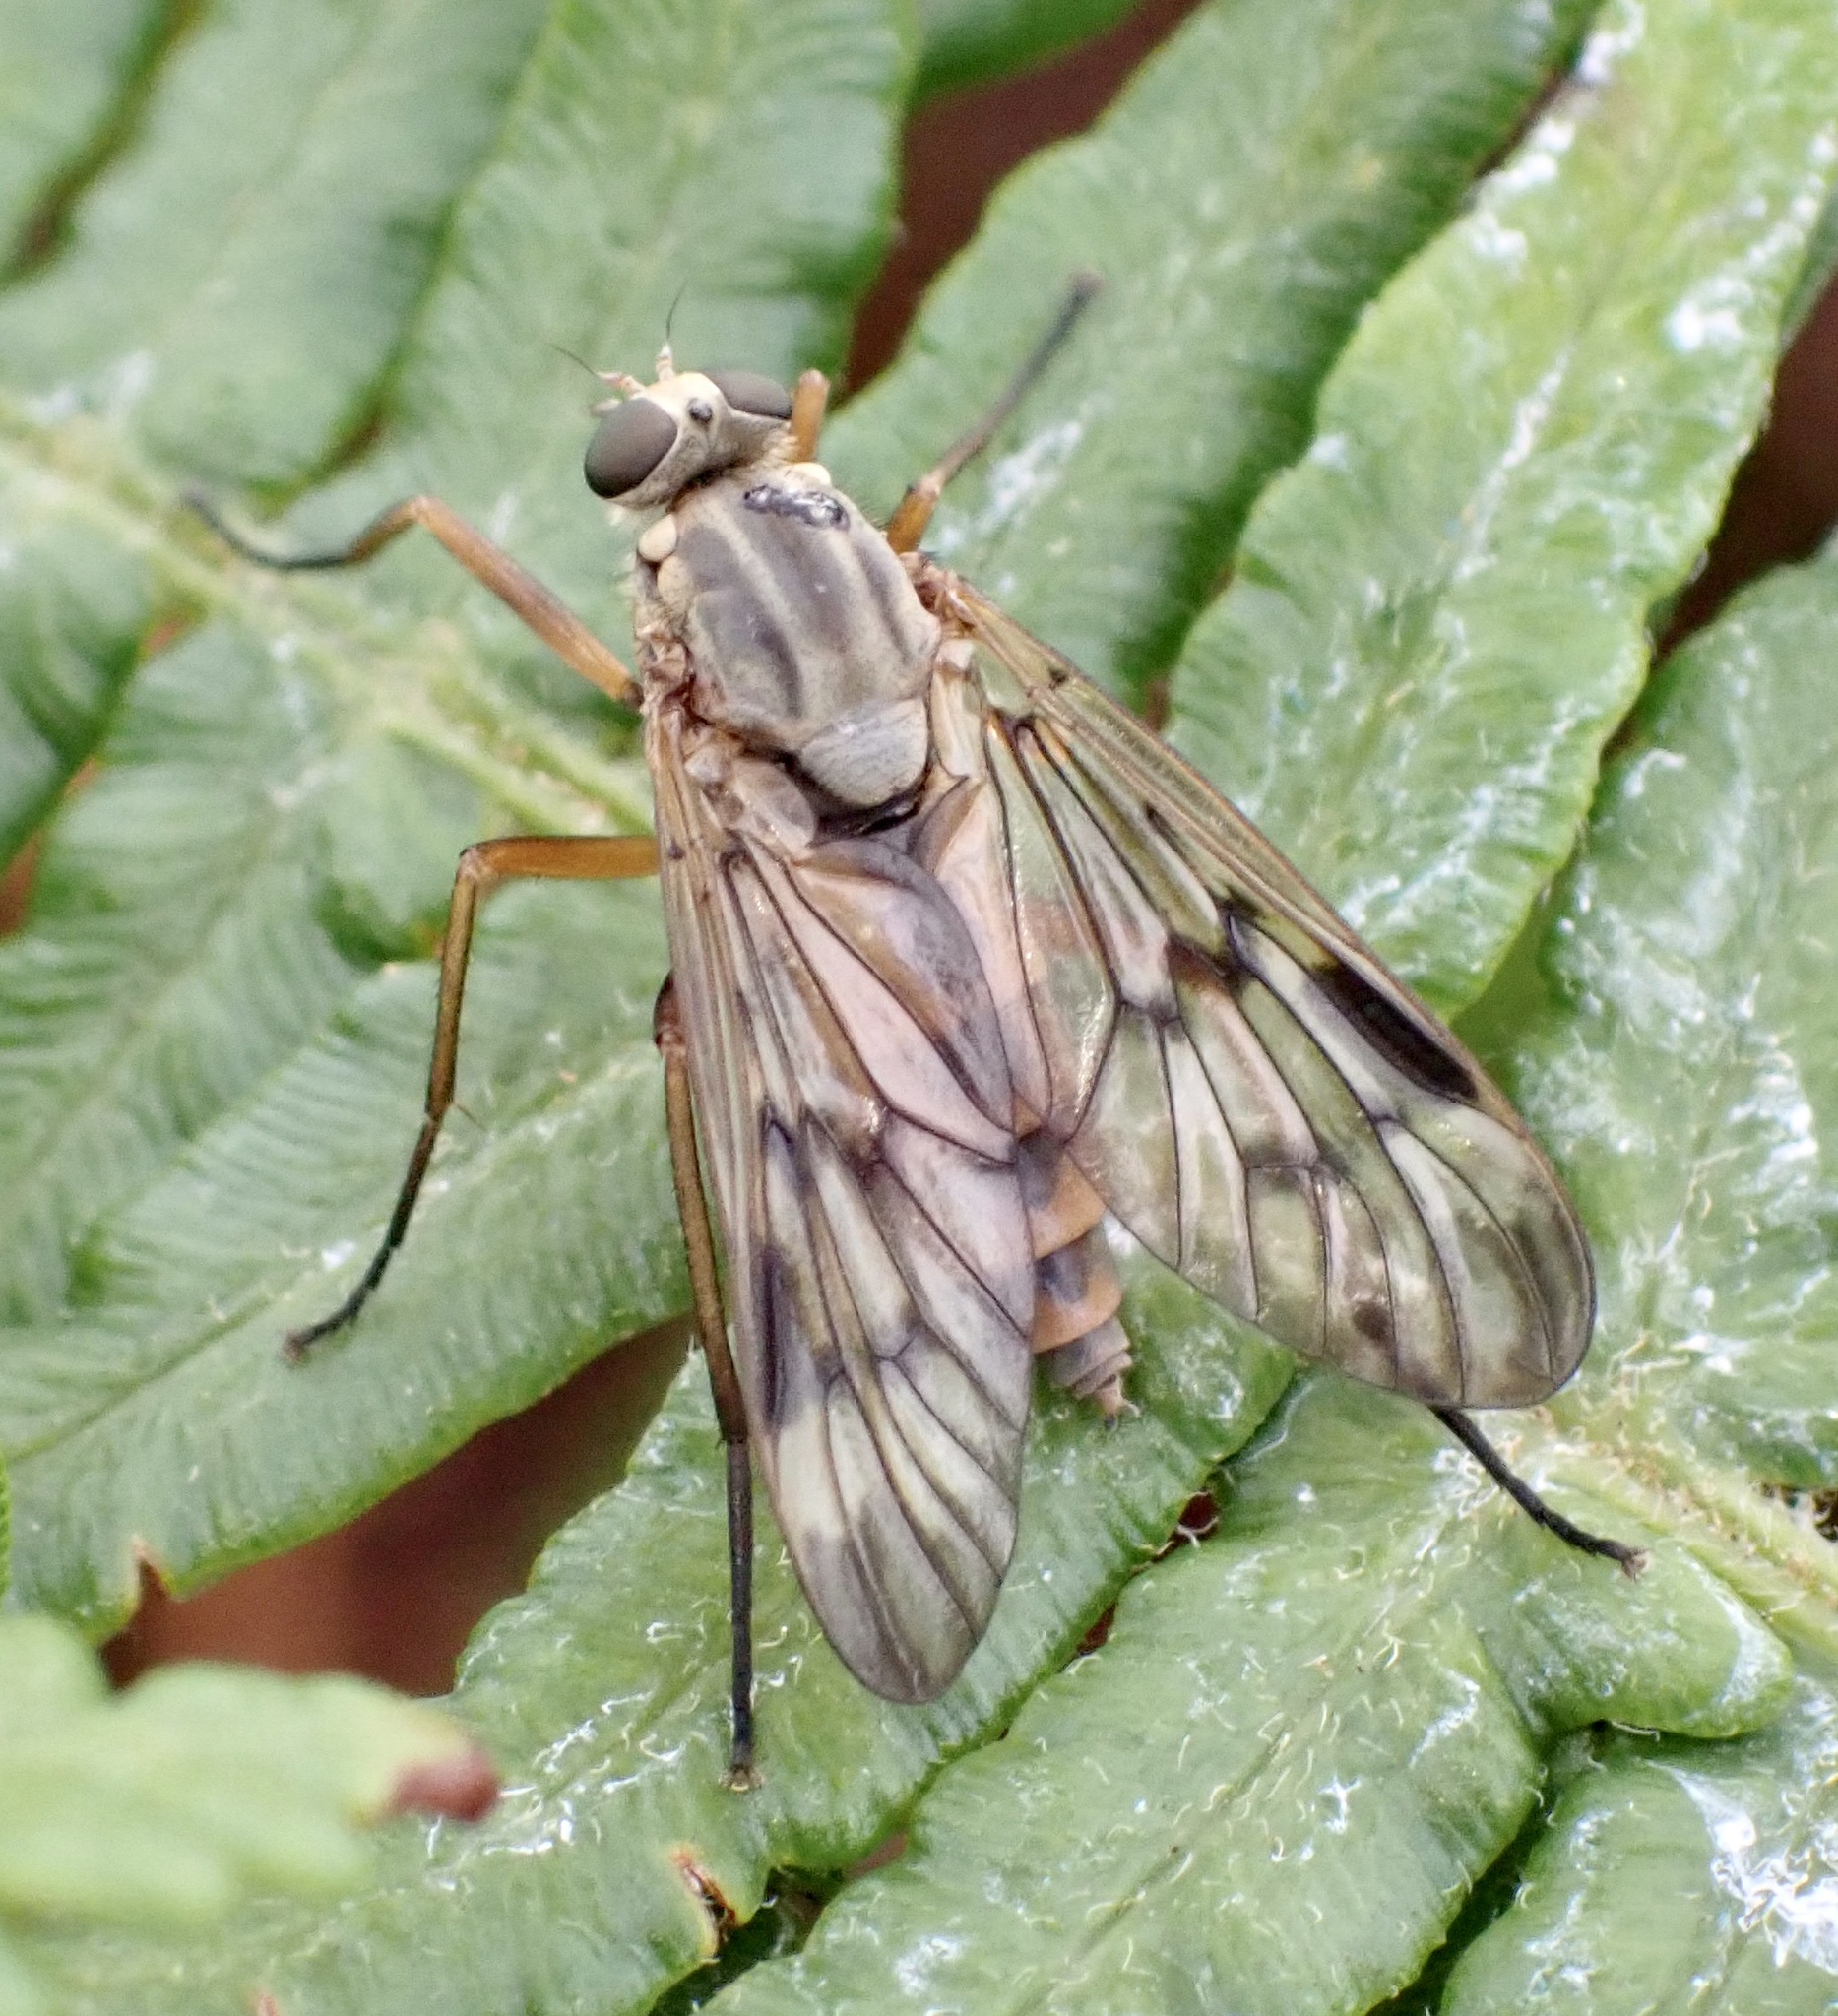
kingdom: Animalia
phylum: Arthropoda
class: Insecta
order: Diptera
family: Rhagionidae
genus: Rhagio
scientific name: Rhagio scolopacea
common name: Downlooker snipefly
